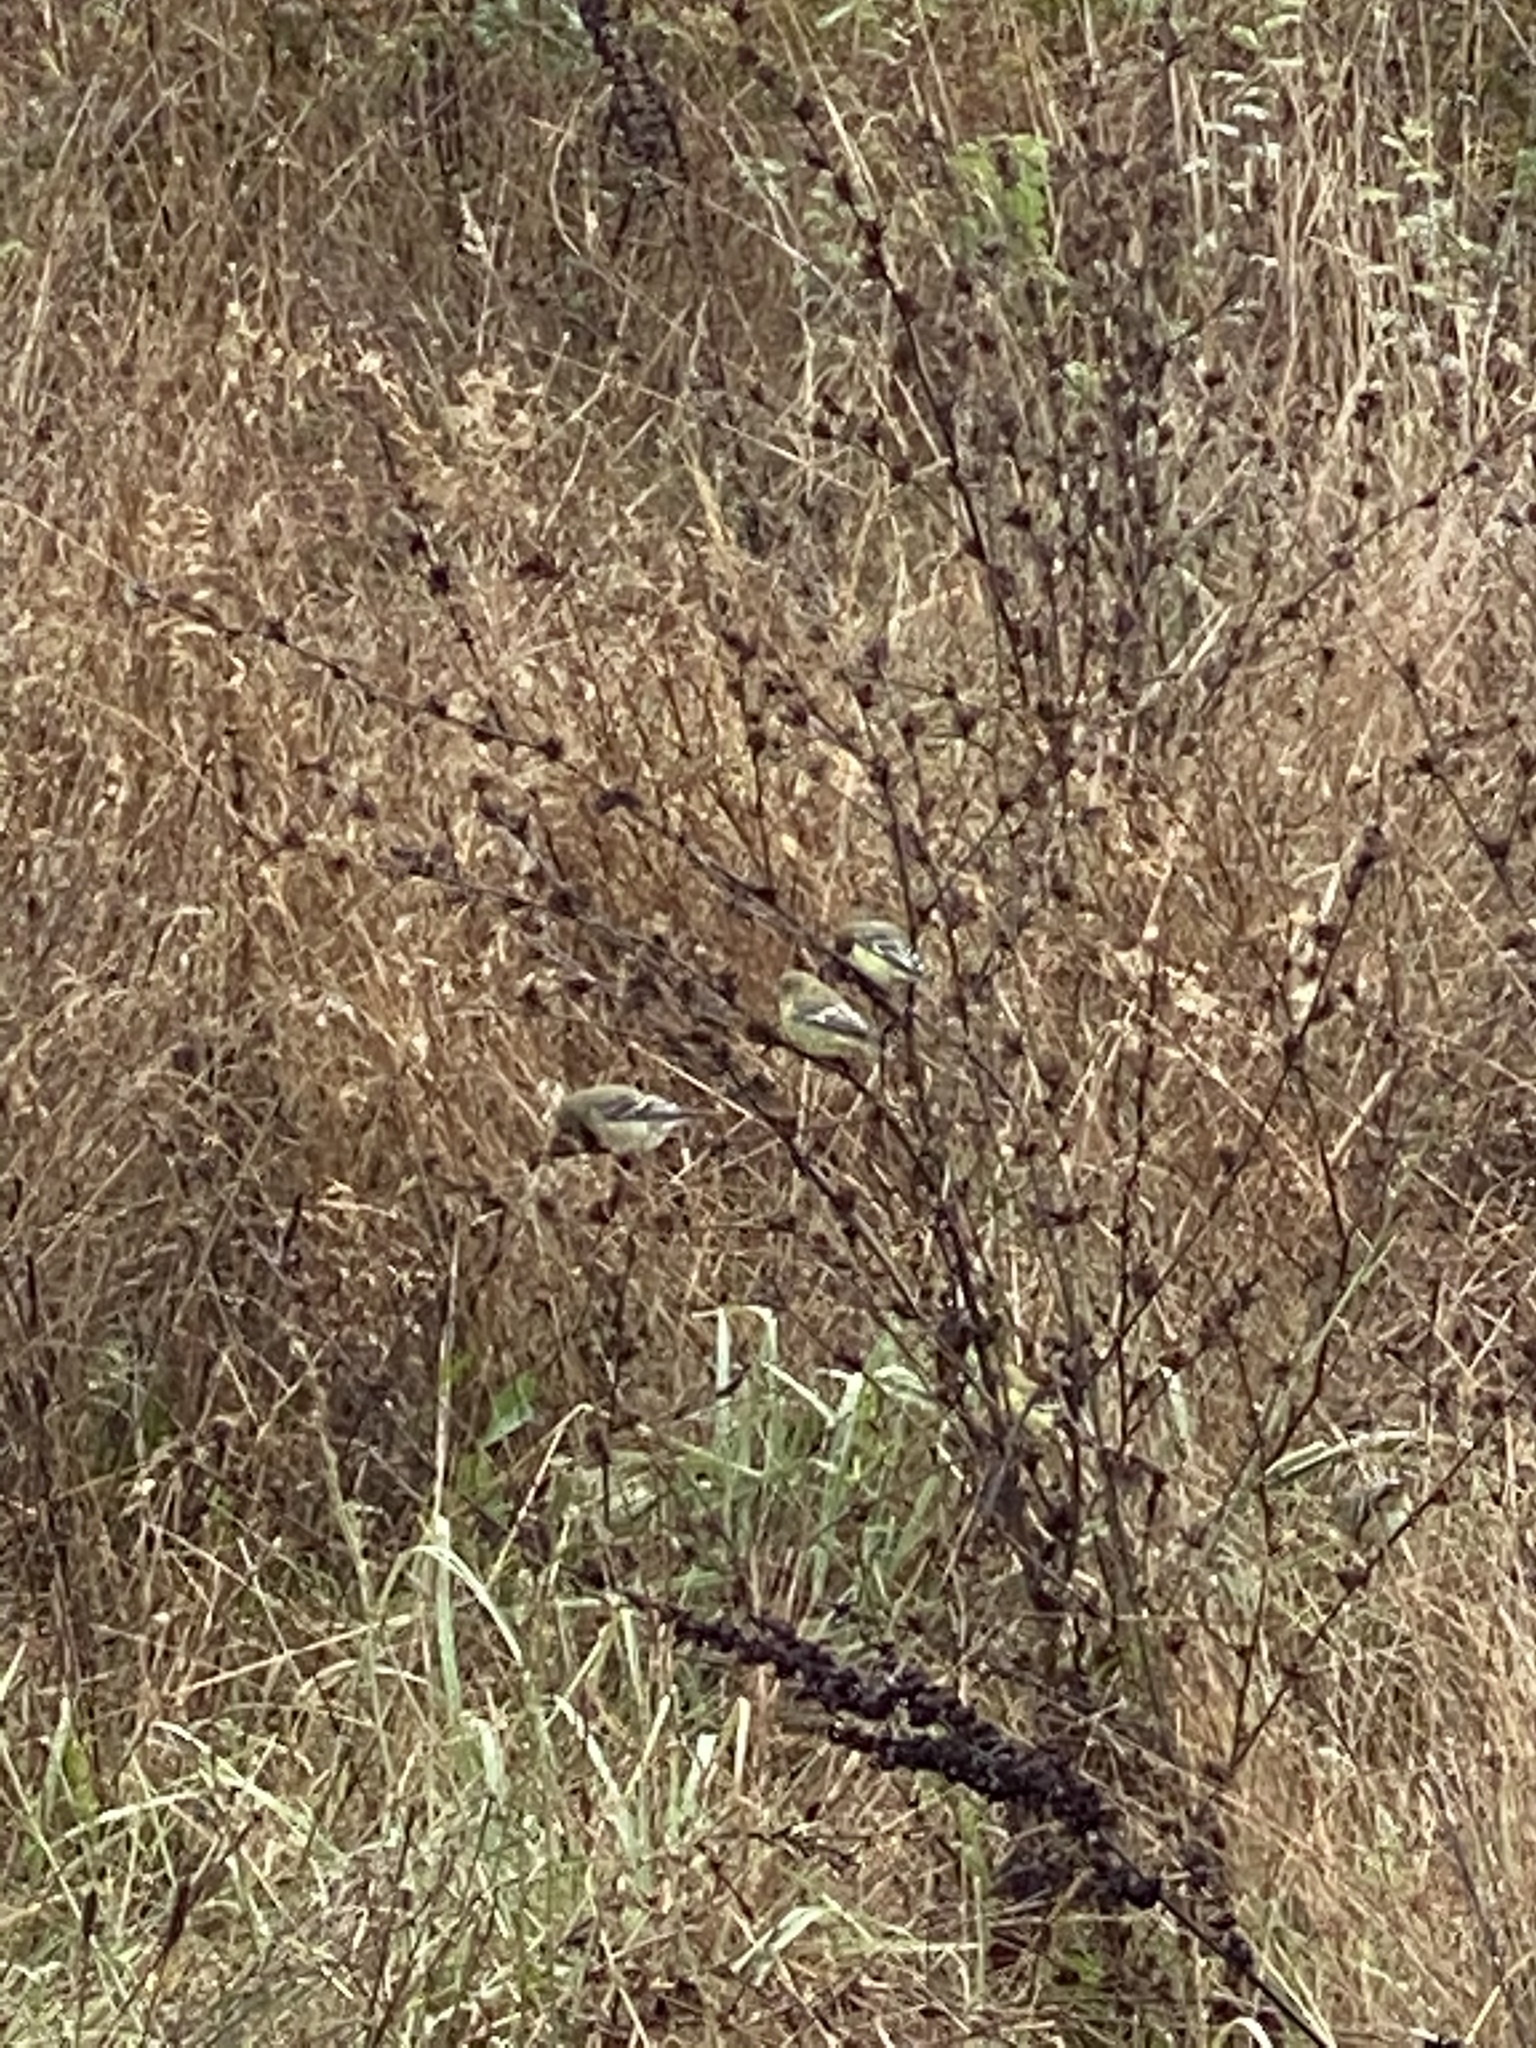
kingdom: Animalia
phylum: Chordata
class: Aves
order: Passeriformes
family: Fringillidae
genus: Spinus
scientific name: Spinus psaltria
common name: Lesser goldfinch
